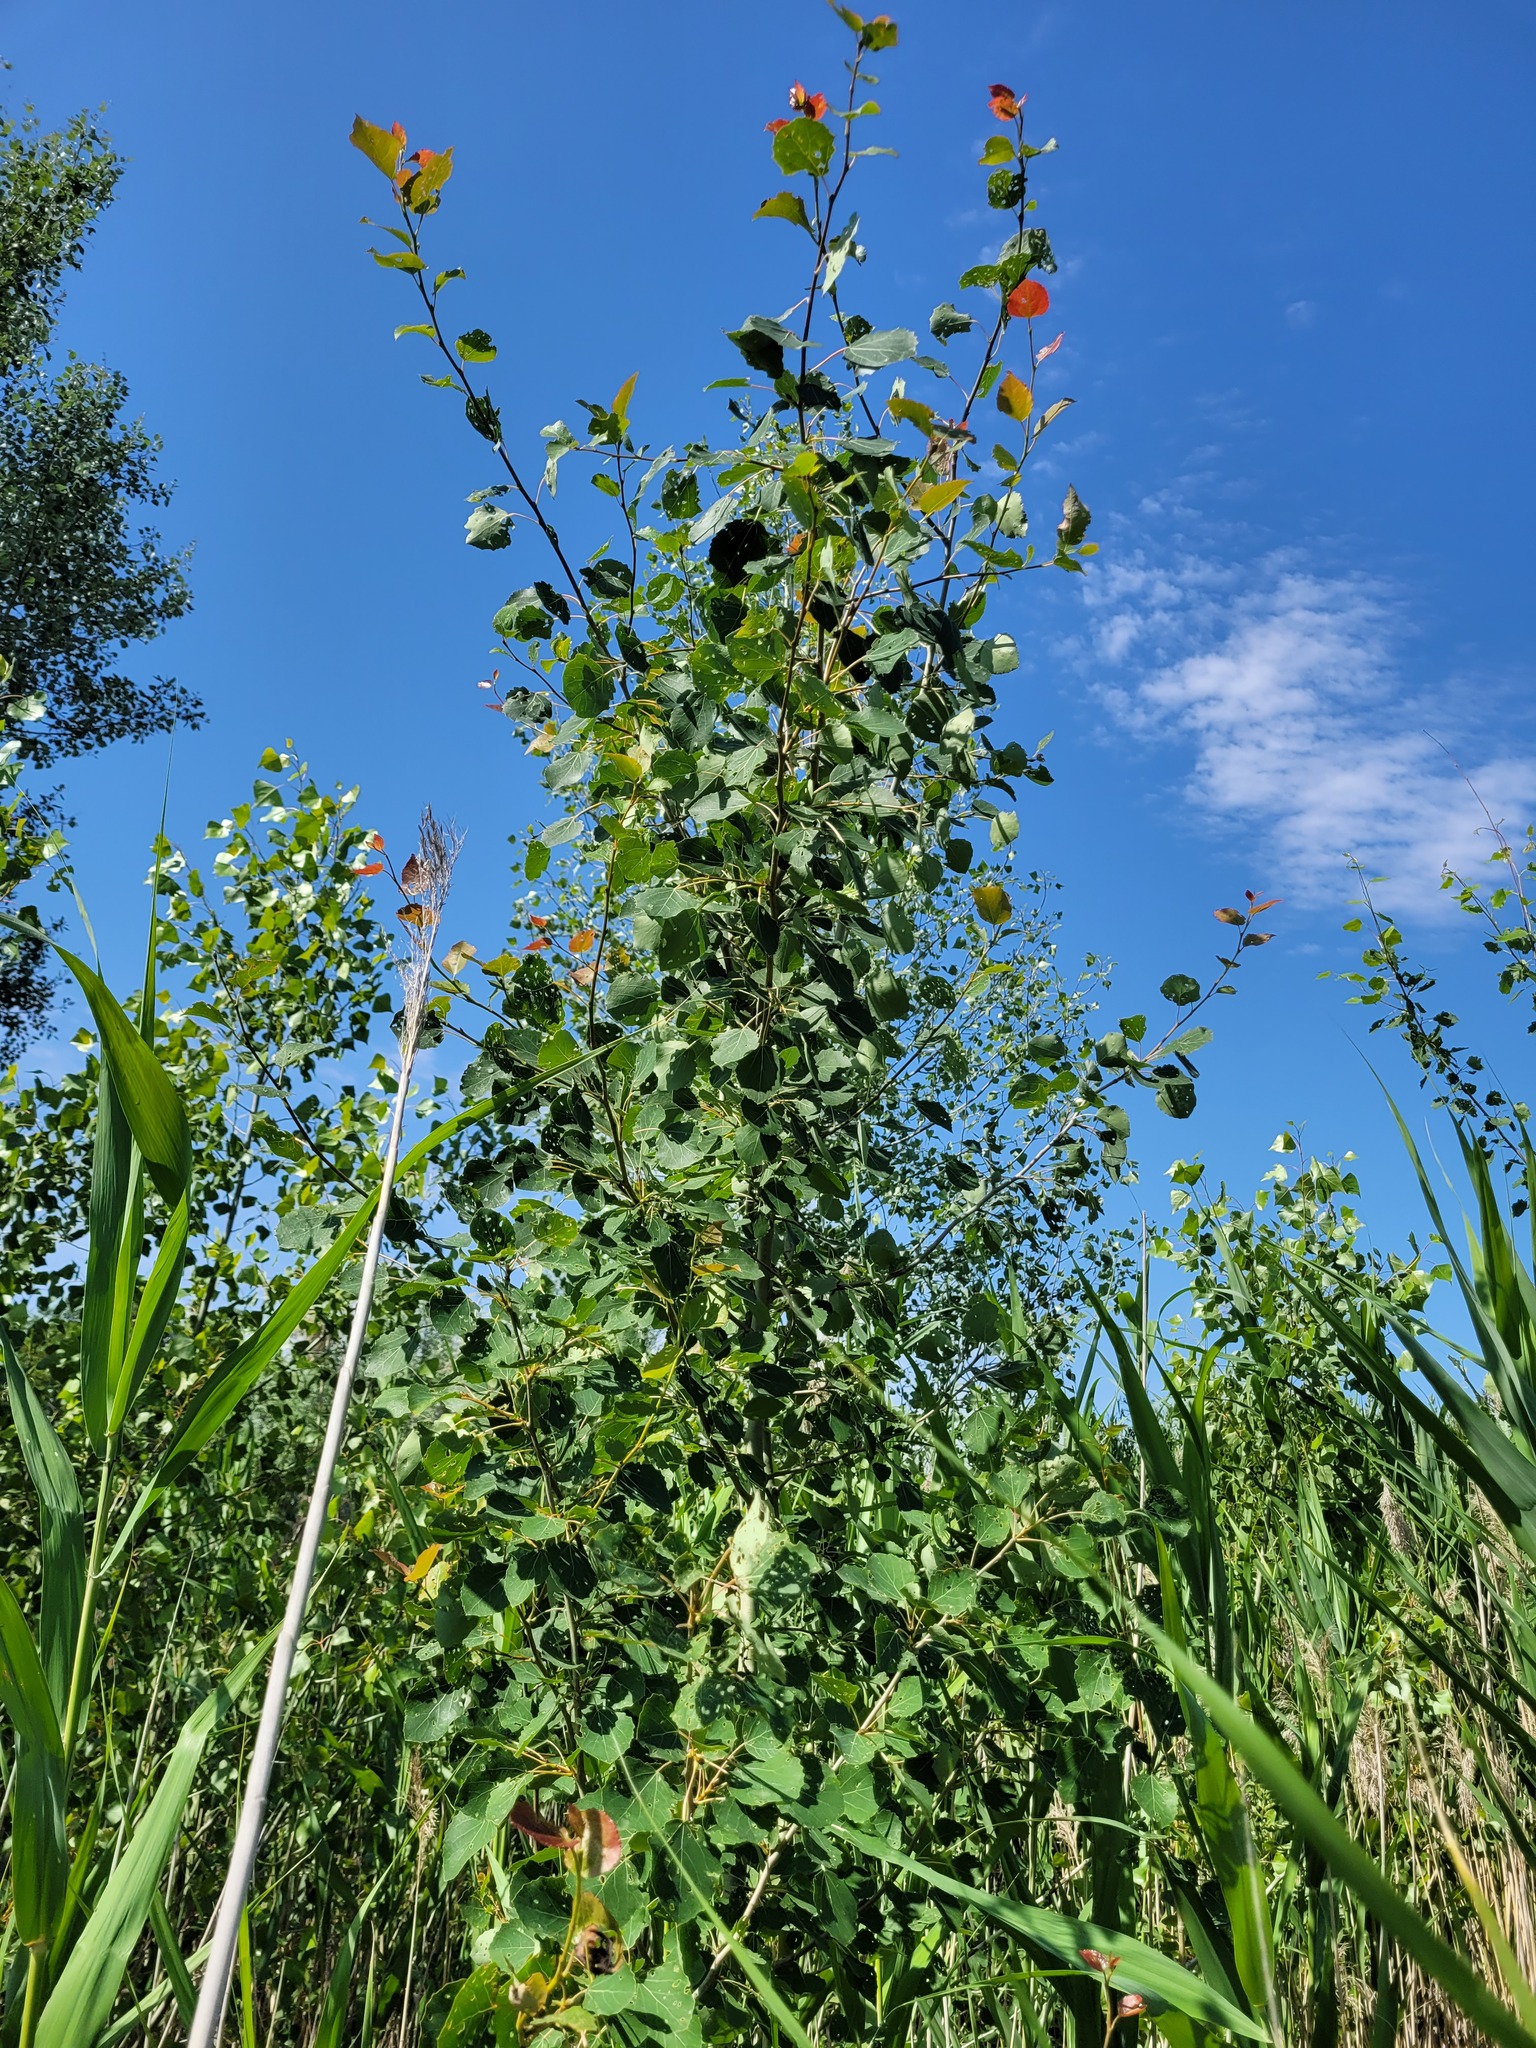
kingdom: Plantae
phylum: Tracheophyta
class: Magnoliopsida
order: Malpighiales
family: Salicaceae
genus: Populus
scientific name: Populus tremula
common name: European aspen
